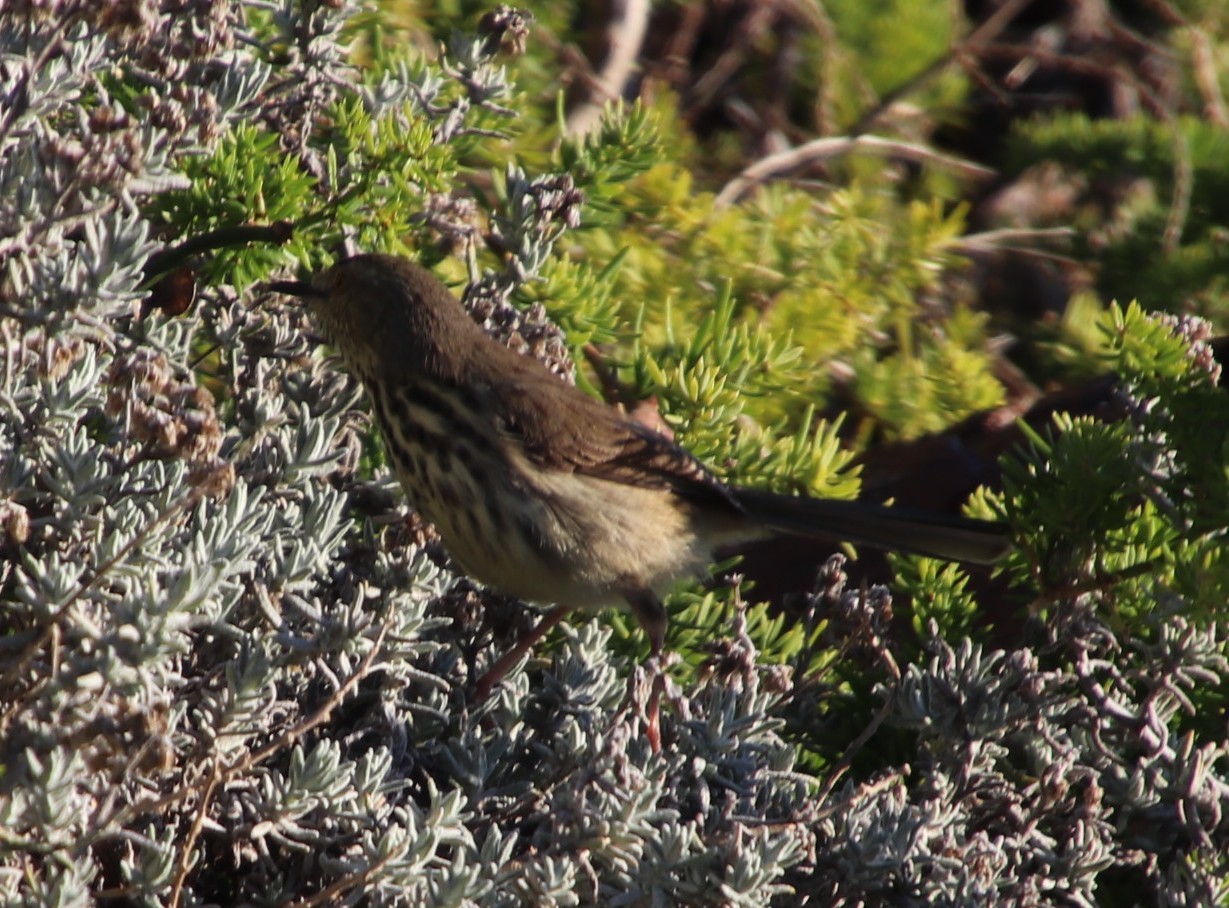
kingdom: Animalia
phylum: Chordata
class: Aves
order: Passeriformes
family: Cisticolidae
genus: Prinia
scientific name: Prinia maculosa
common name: Karoo prinia
